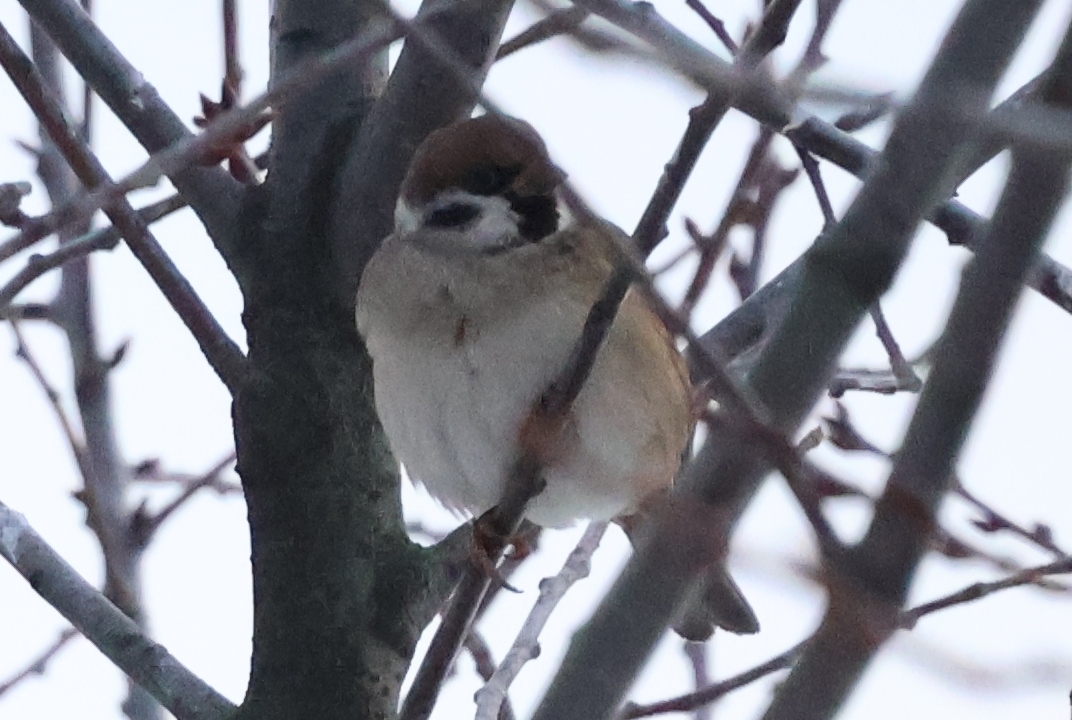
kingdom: Animalia
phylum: Chordata
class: Aves
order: Passeriformes
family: Passeridae
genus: Passer
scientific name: Passer montanus
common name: Eurasian tree sparrow
